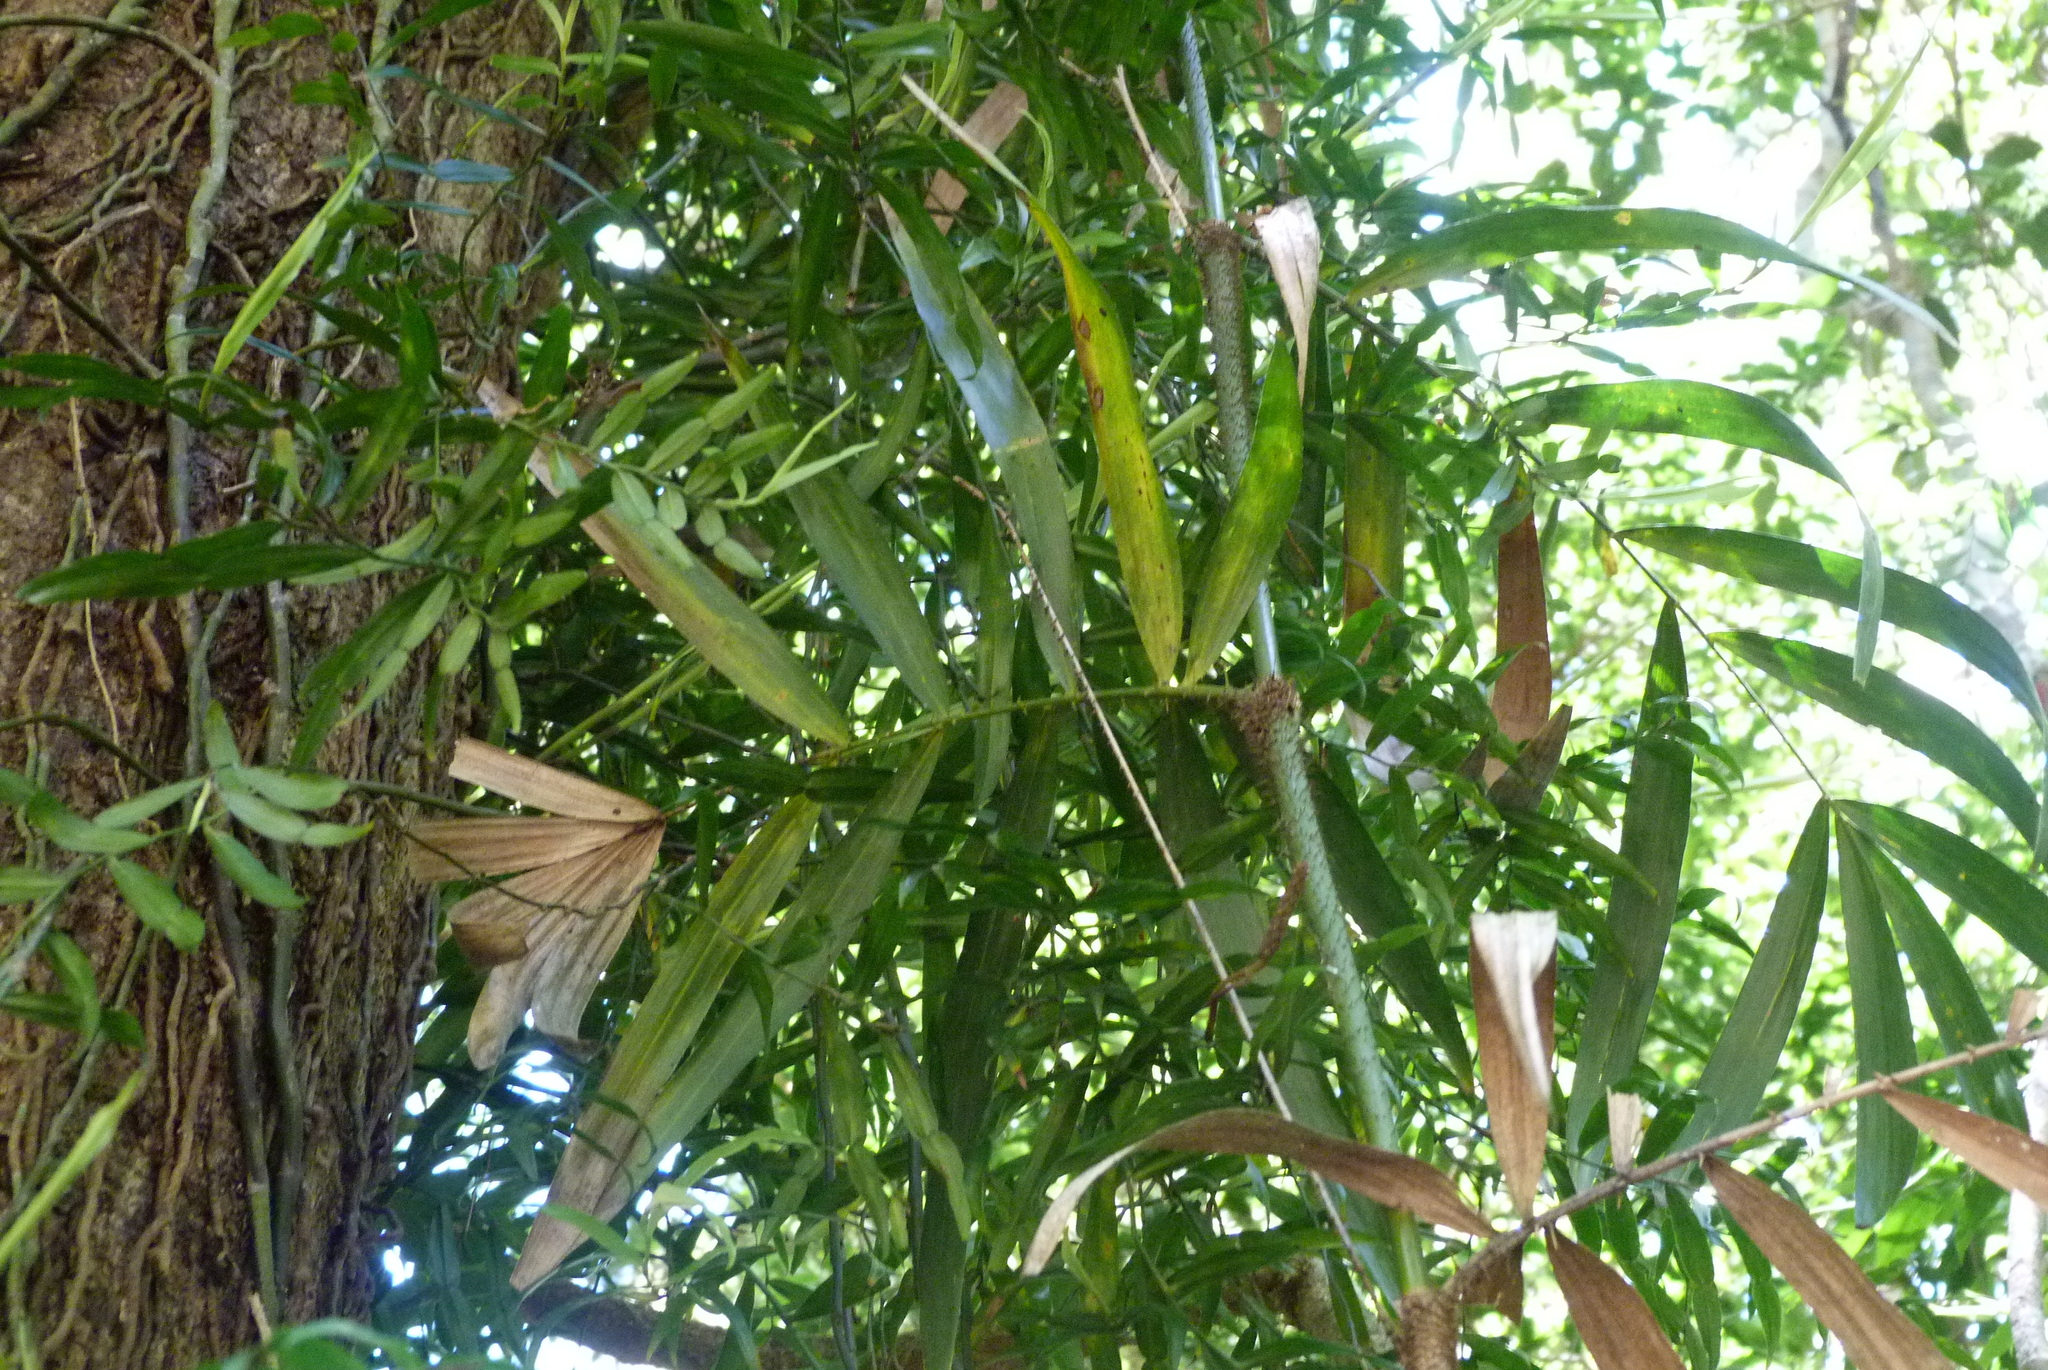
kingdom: Plantae
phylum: Tracheophyta
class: Liliopsida
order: Arecales
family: Arecaceae
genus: Calamus
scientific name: Calamus muelleri
